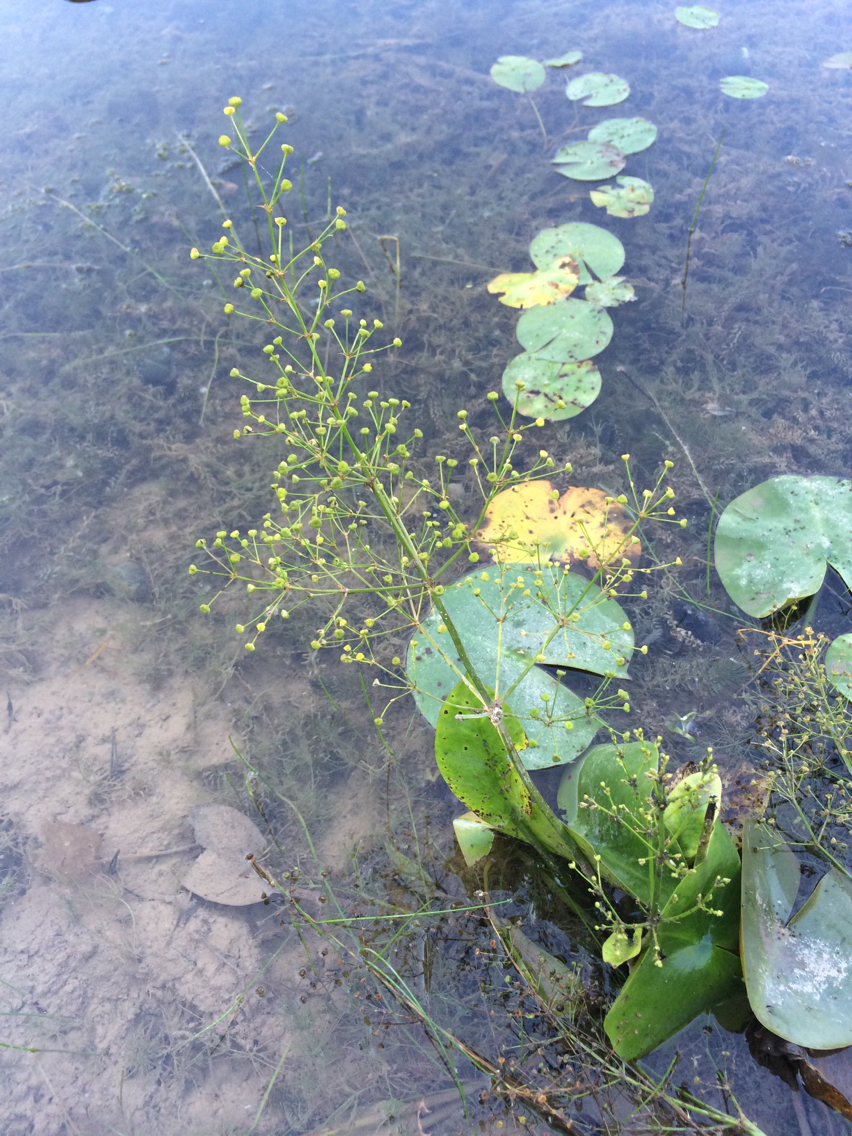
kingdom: Plantae
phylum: Tracheophyta
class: Liliopsida
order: Alismatales
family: Alismataceae
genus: Alisma
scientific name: Alisma subcordatum
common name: Southern water-plantain
